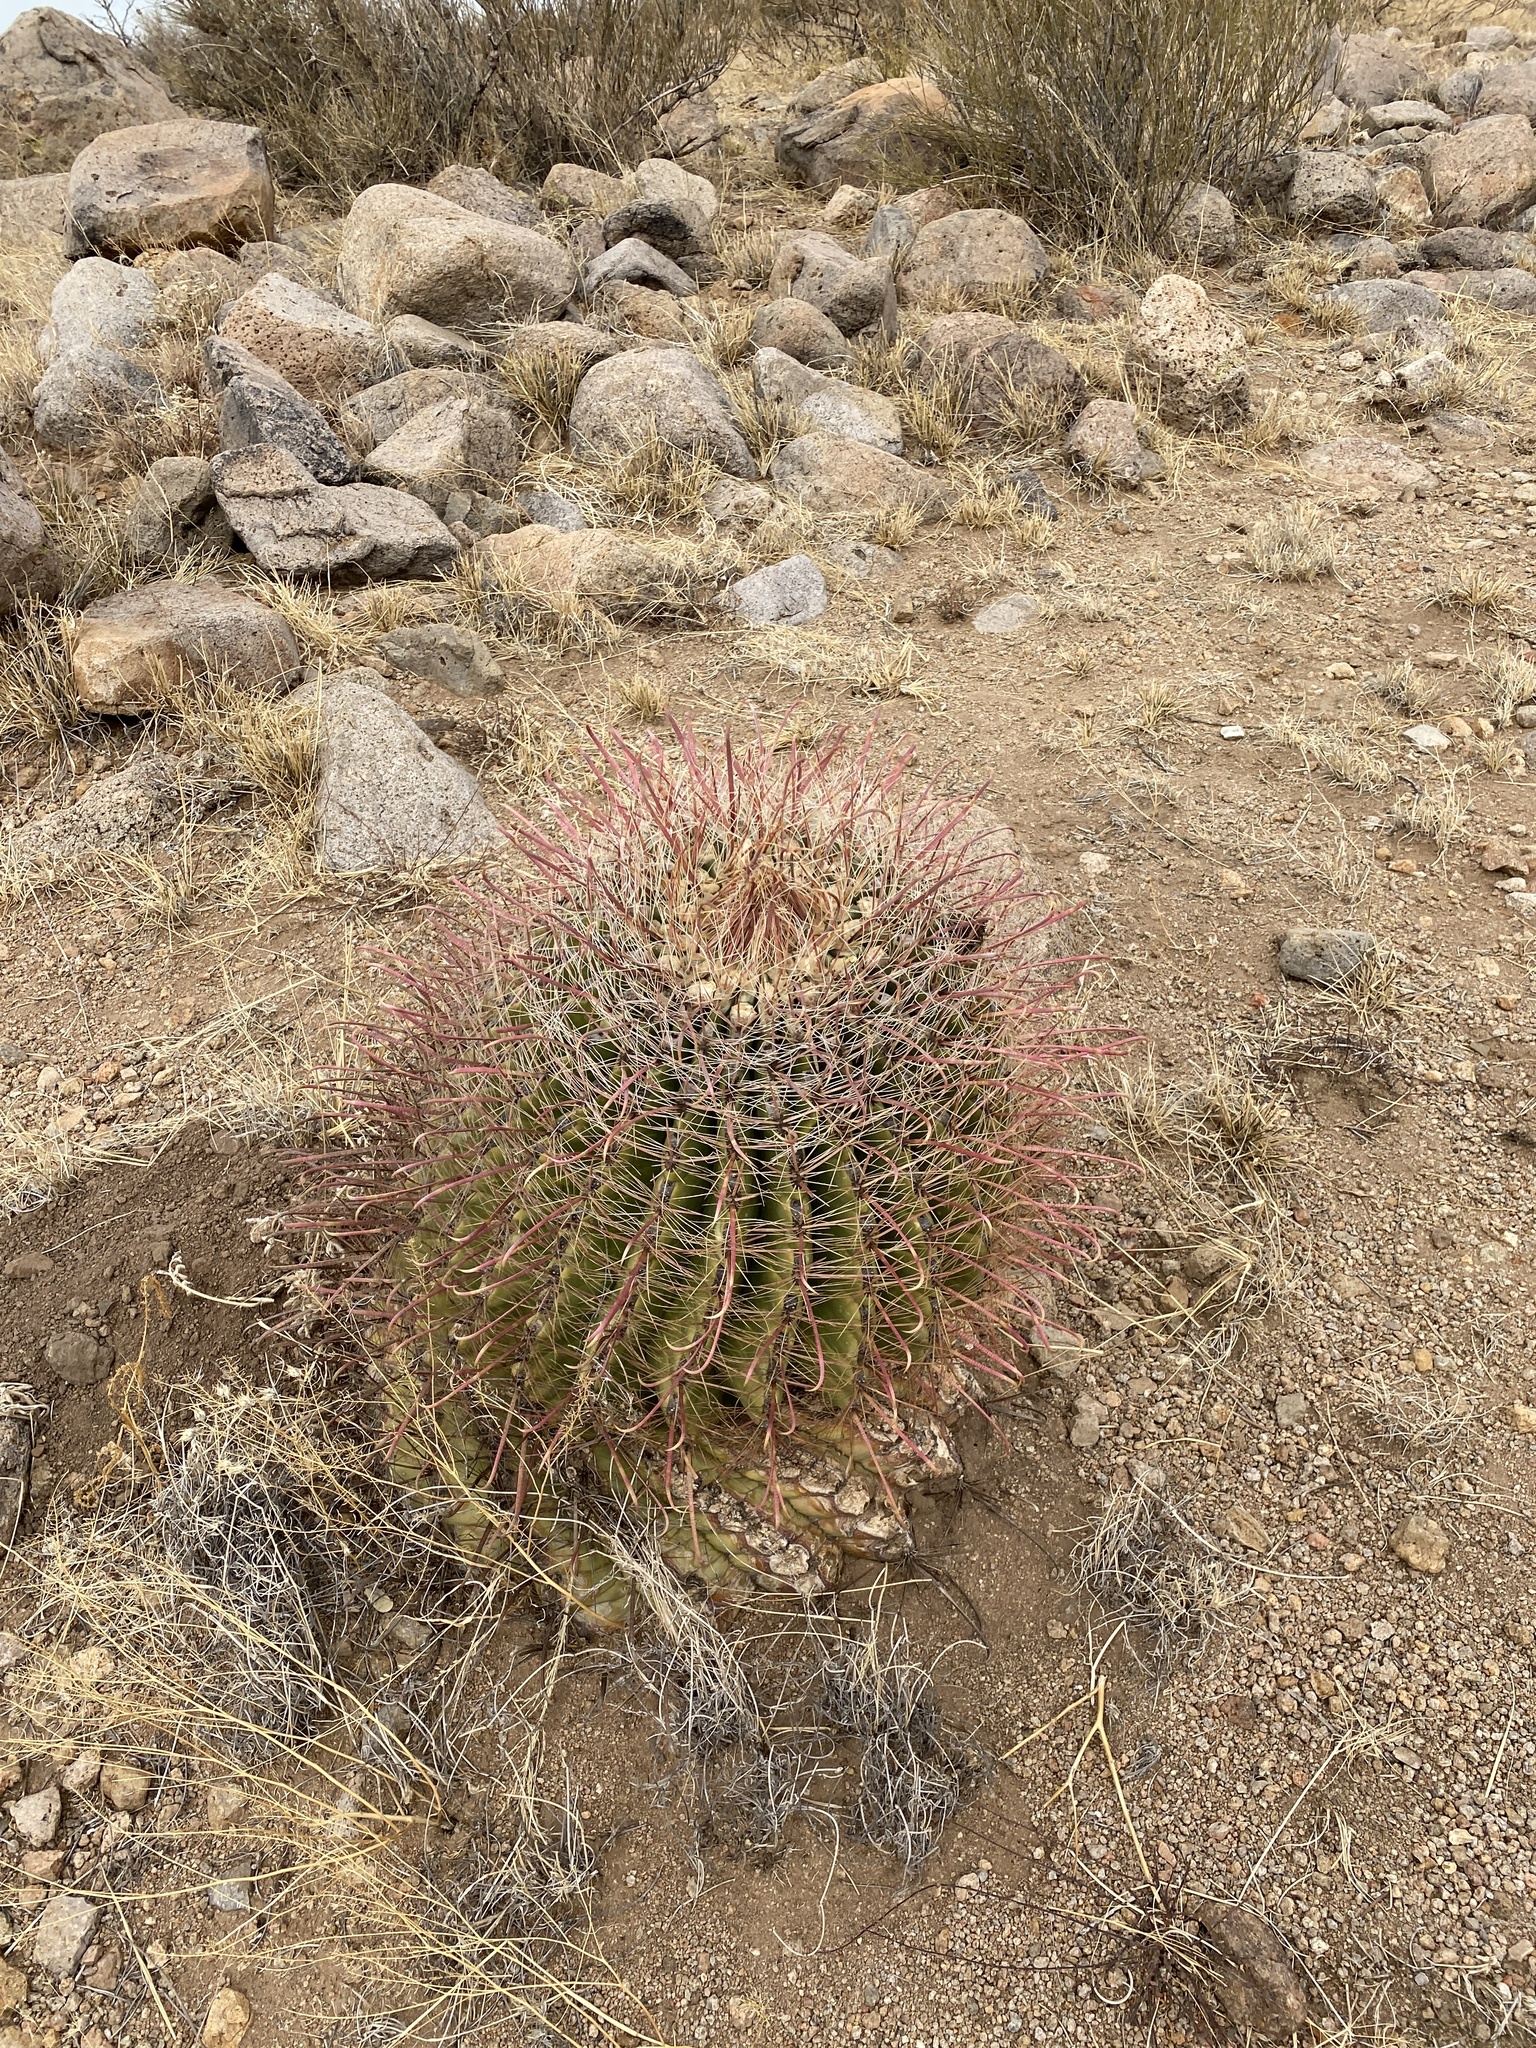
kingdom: Plantae
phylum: Tracheophyta
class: Magnoliopsida
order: Caryophyllales
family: Cactaceae
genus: Ferocactus
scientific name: Ferocactus wislizeni
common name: Candy barrel cactus
